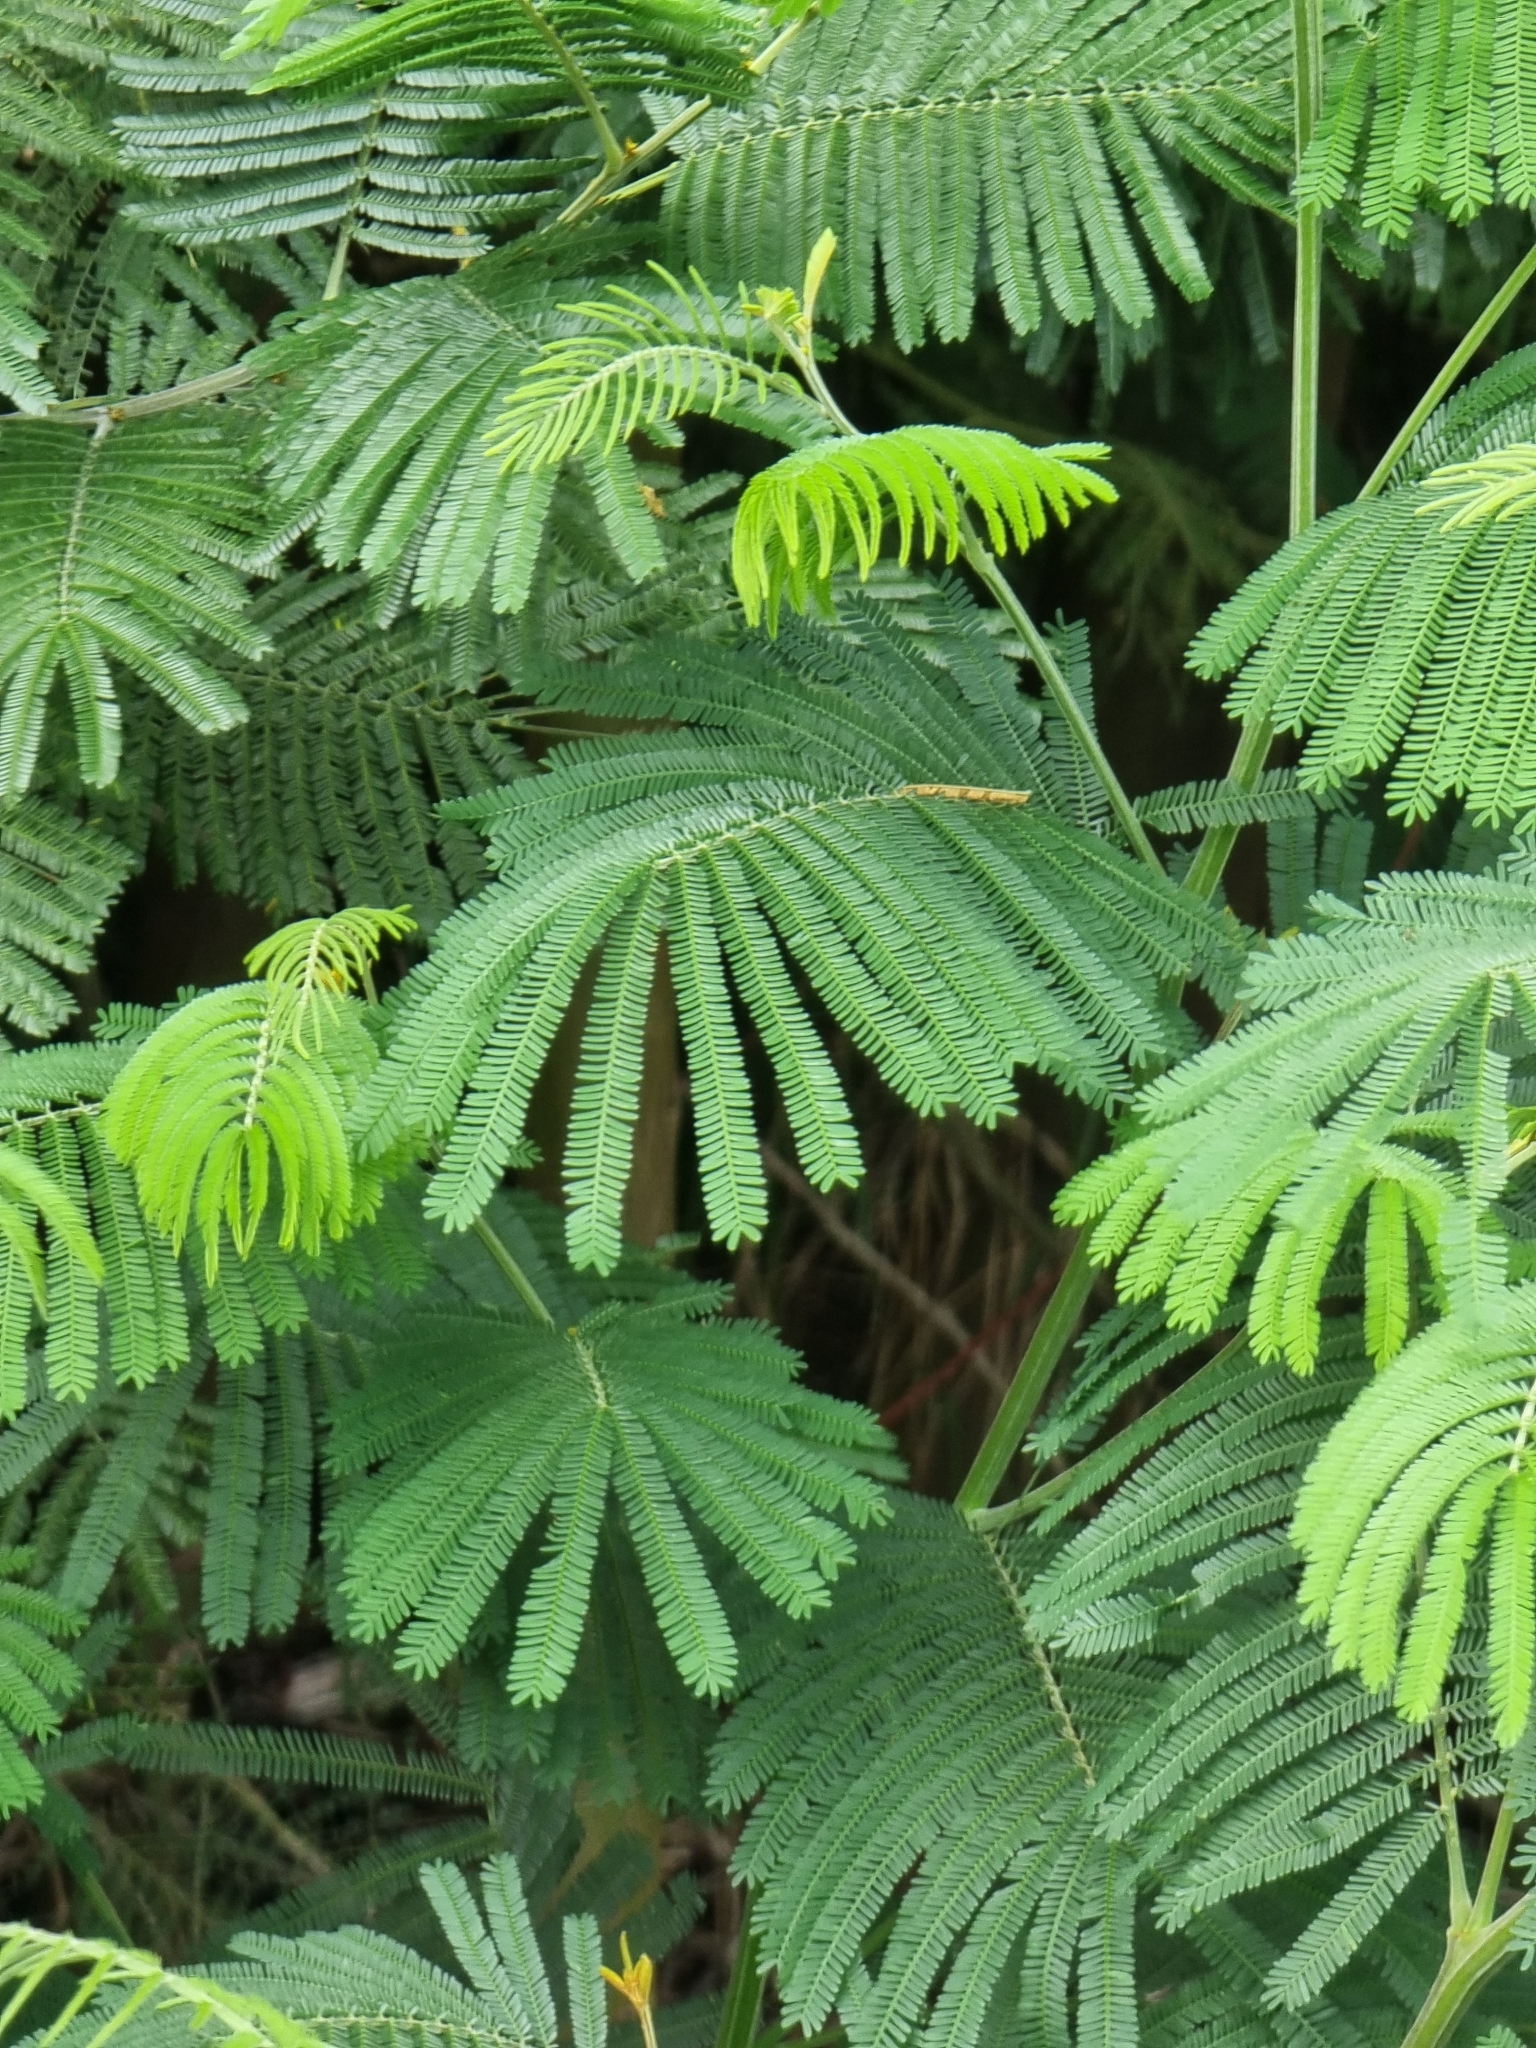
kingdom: Plantae
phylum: Tracheophyta
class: Magnoliopsida
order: Fabales
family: Fabaceae
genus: Acacia
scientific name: Acacia mearnsii
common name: Black wattle
